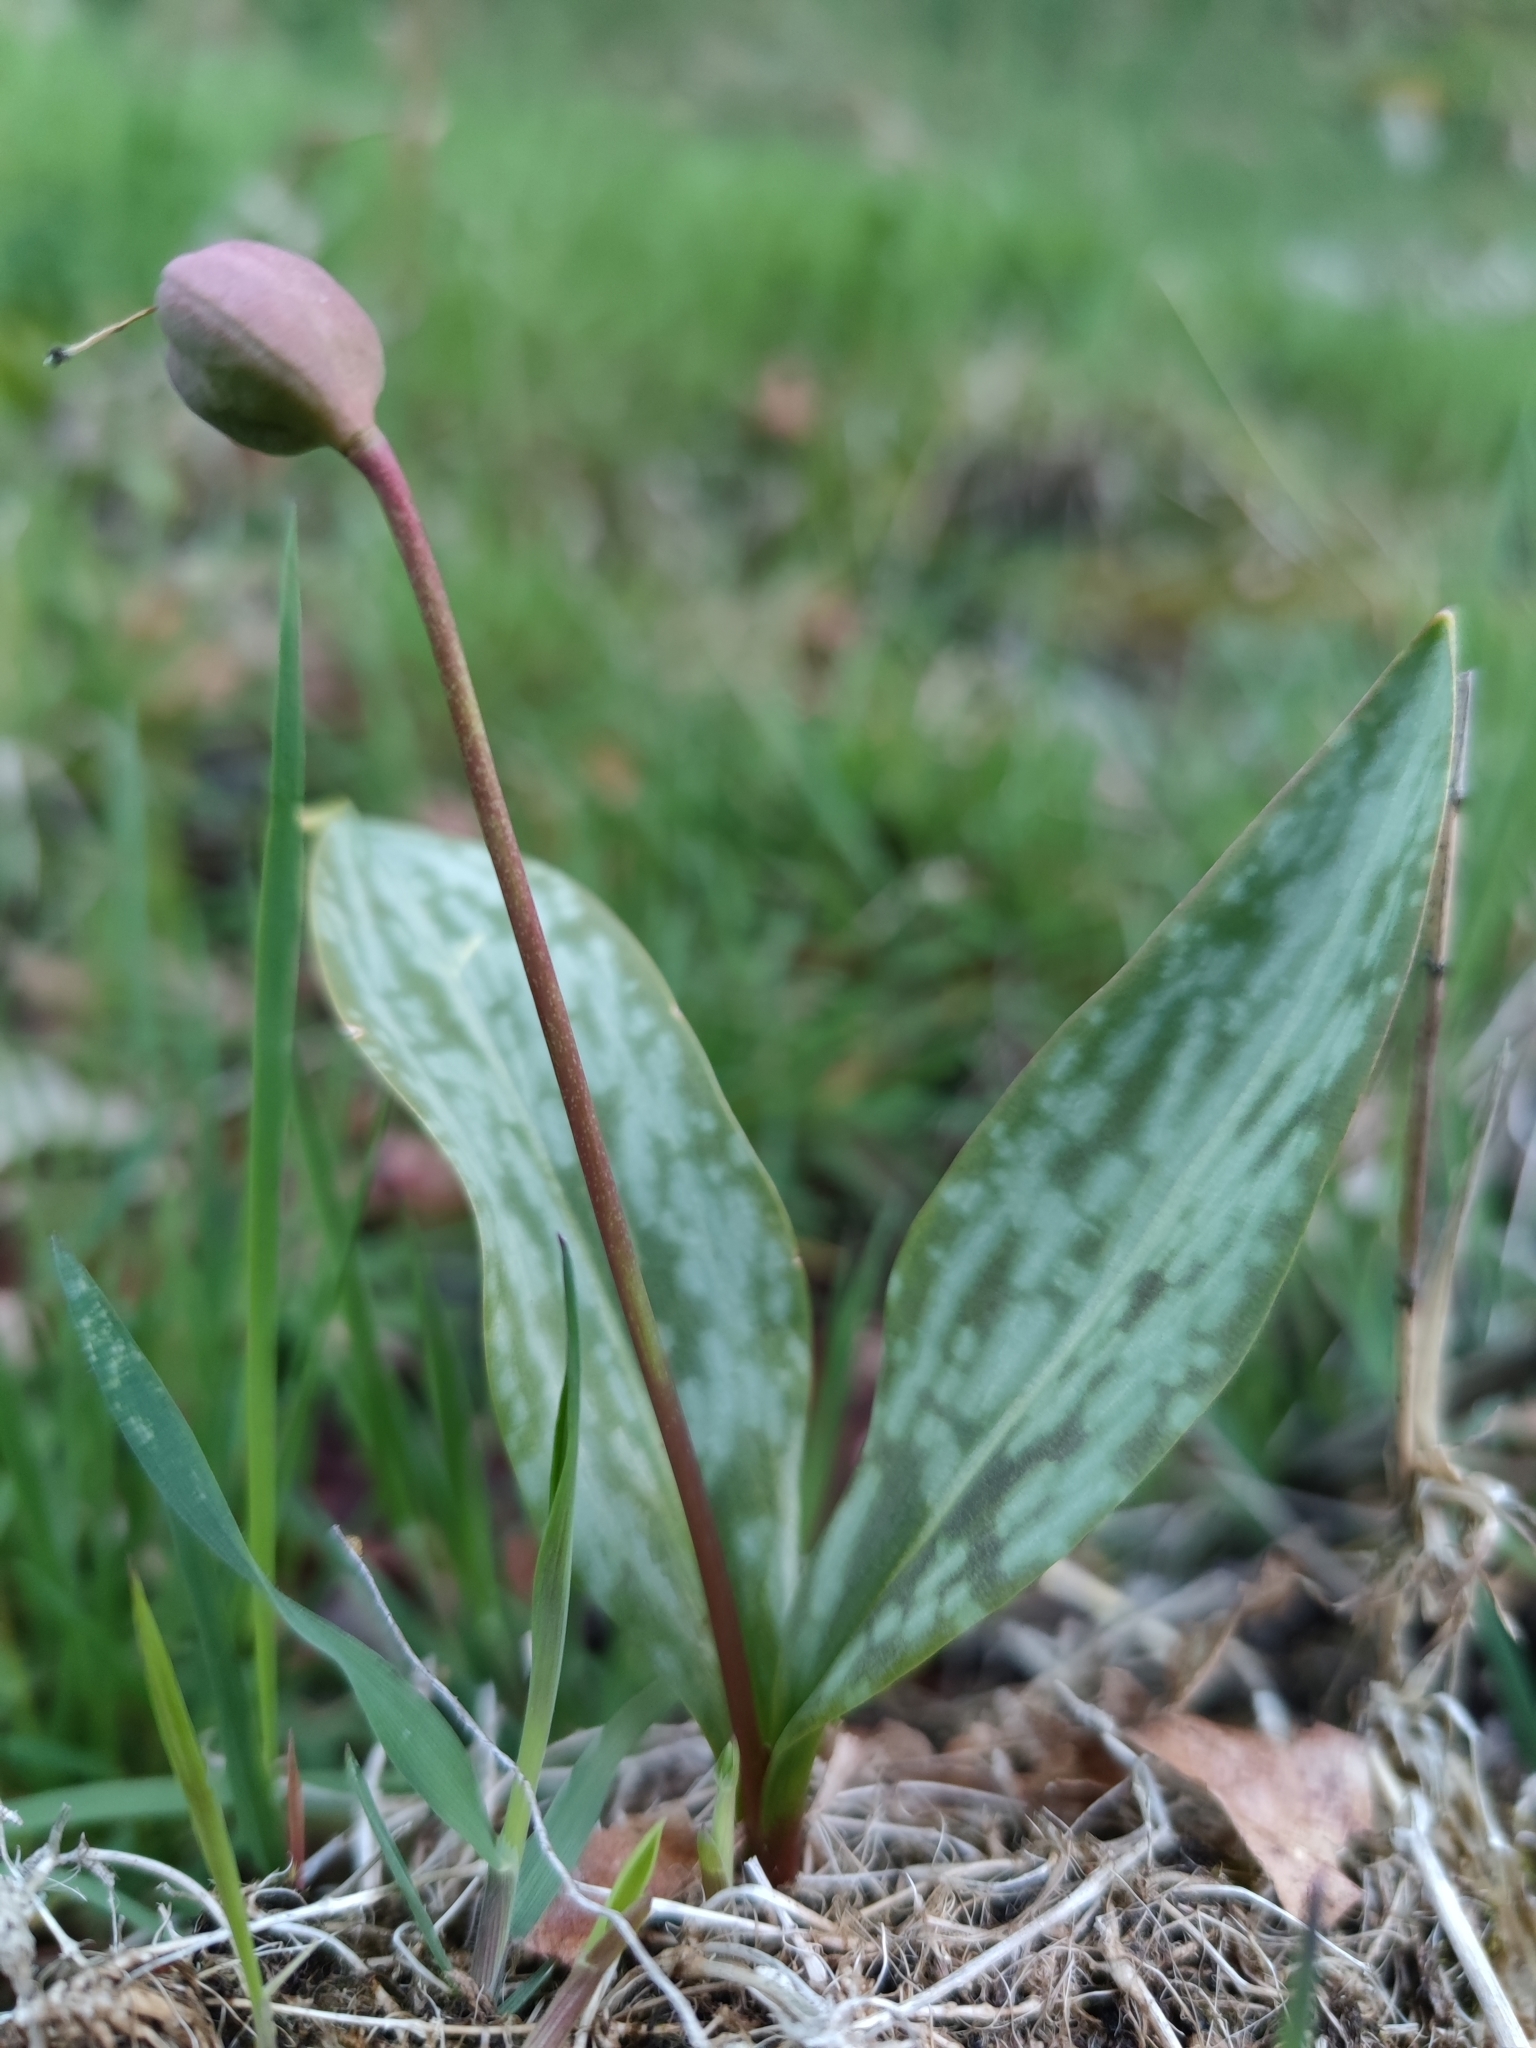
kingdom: Plantae
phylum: Tracheophyta
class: Liliopsida
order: Liliales
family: Liliaceae
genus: Erythronium
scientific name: Erythronium dens-canis
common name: Dog's-tooth-violet
